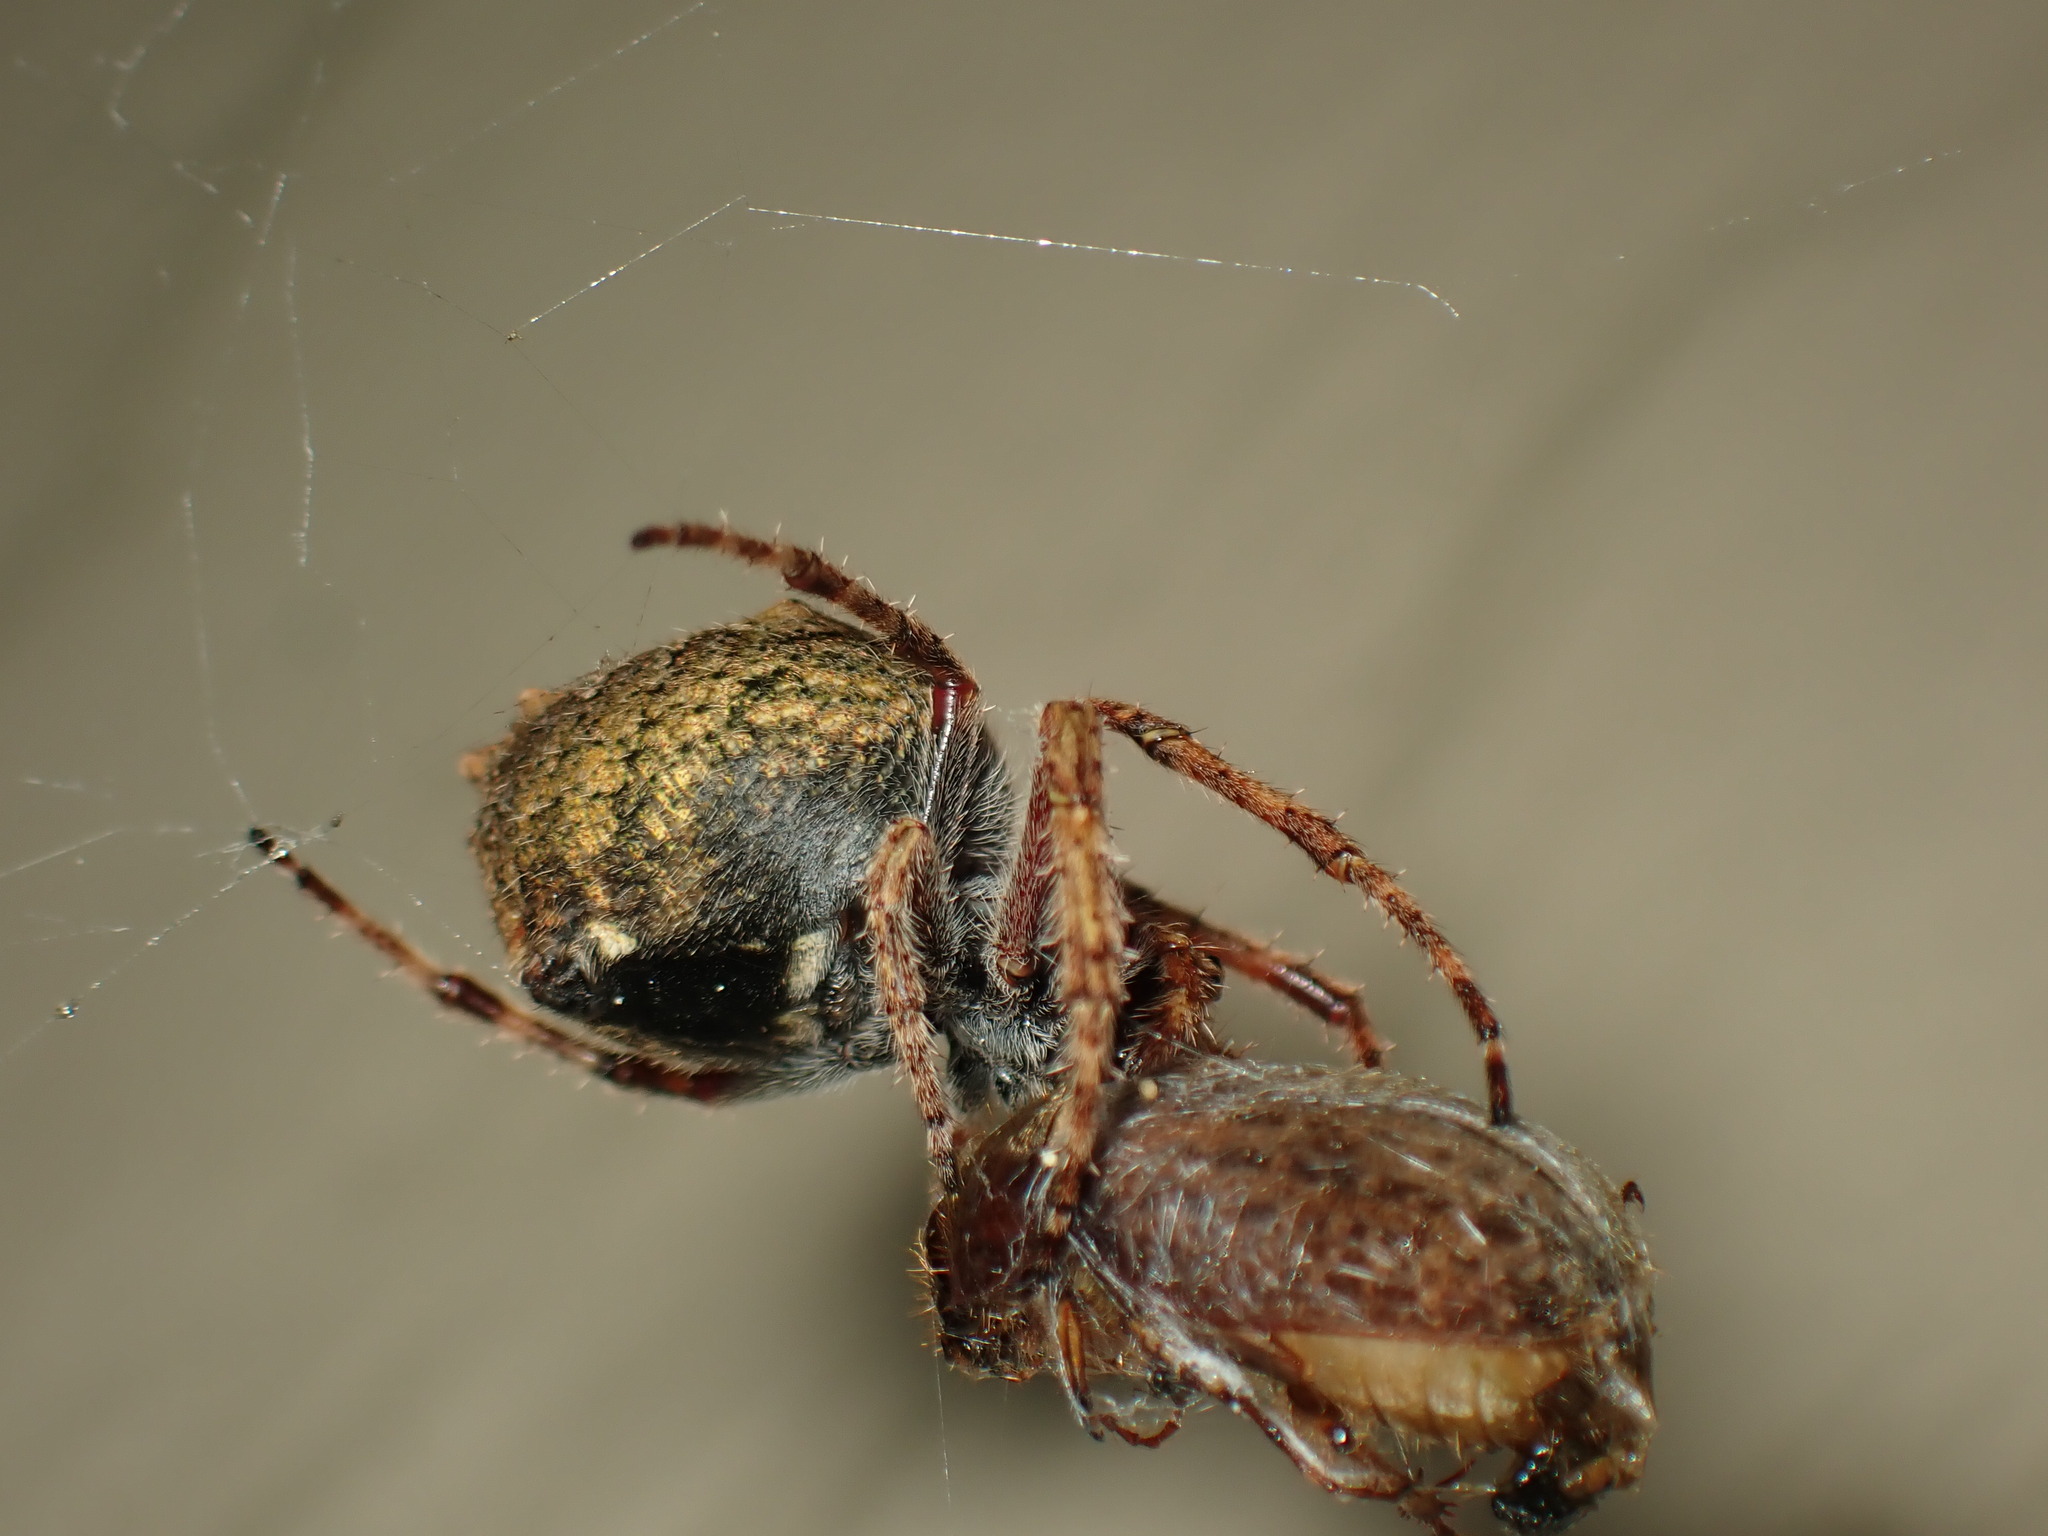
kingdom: Animalia
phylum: Arthropoda
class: Arachnida
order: Araneae
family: Araneidae
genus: Eriophora
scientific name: Eriophora pustulosa
